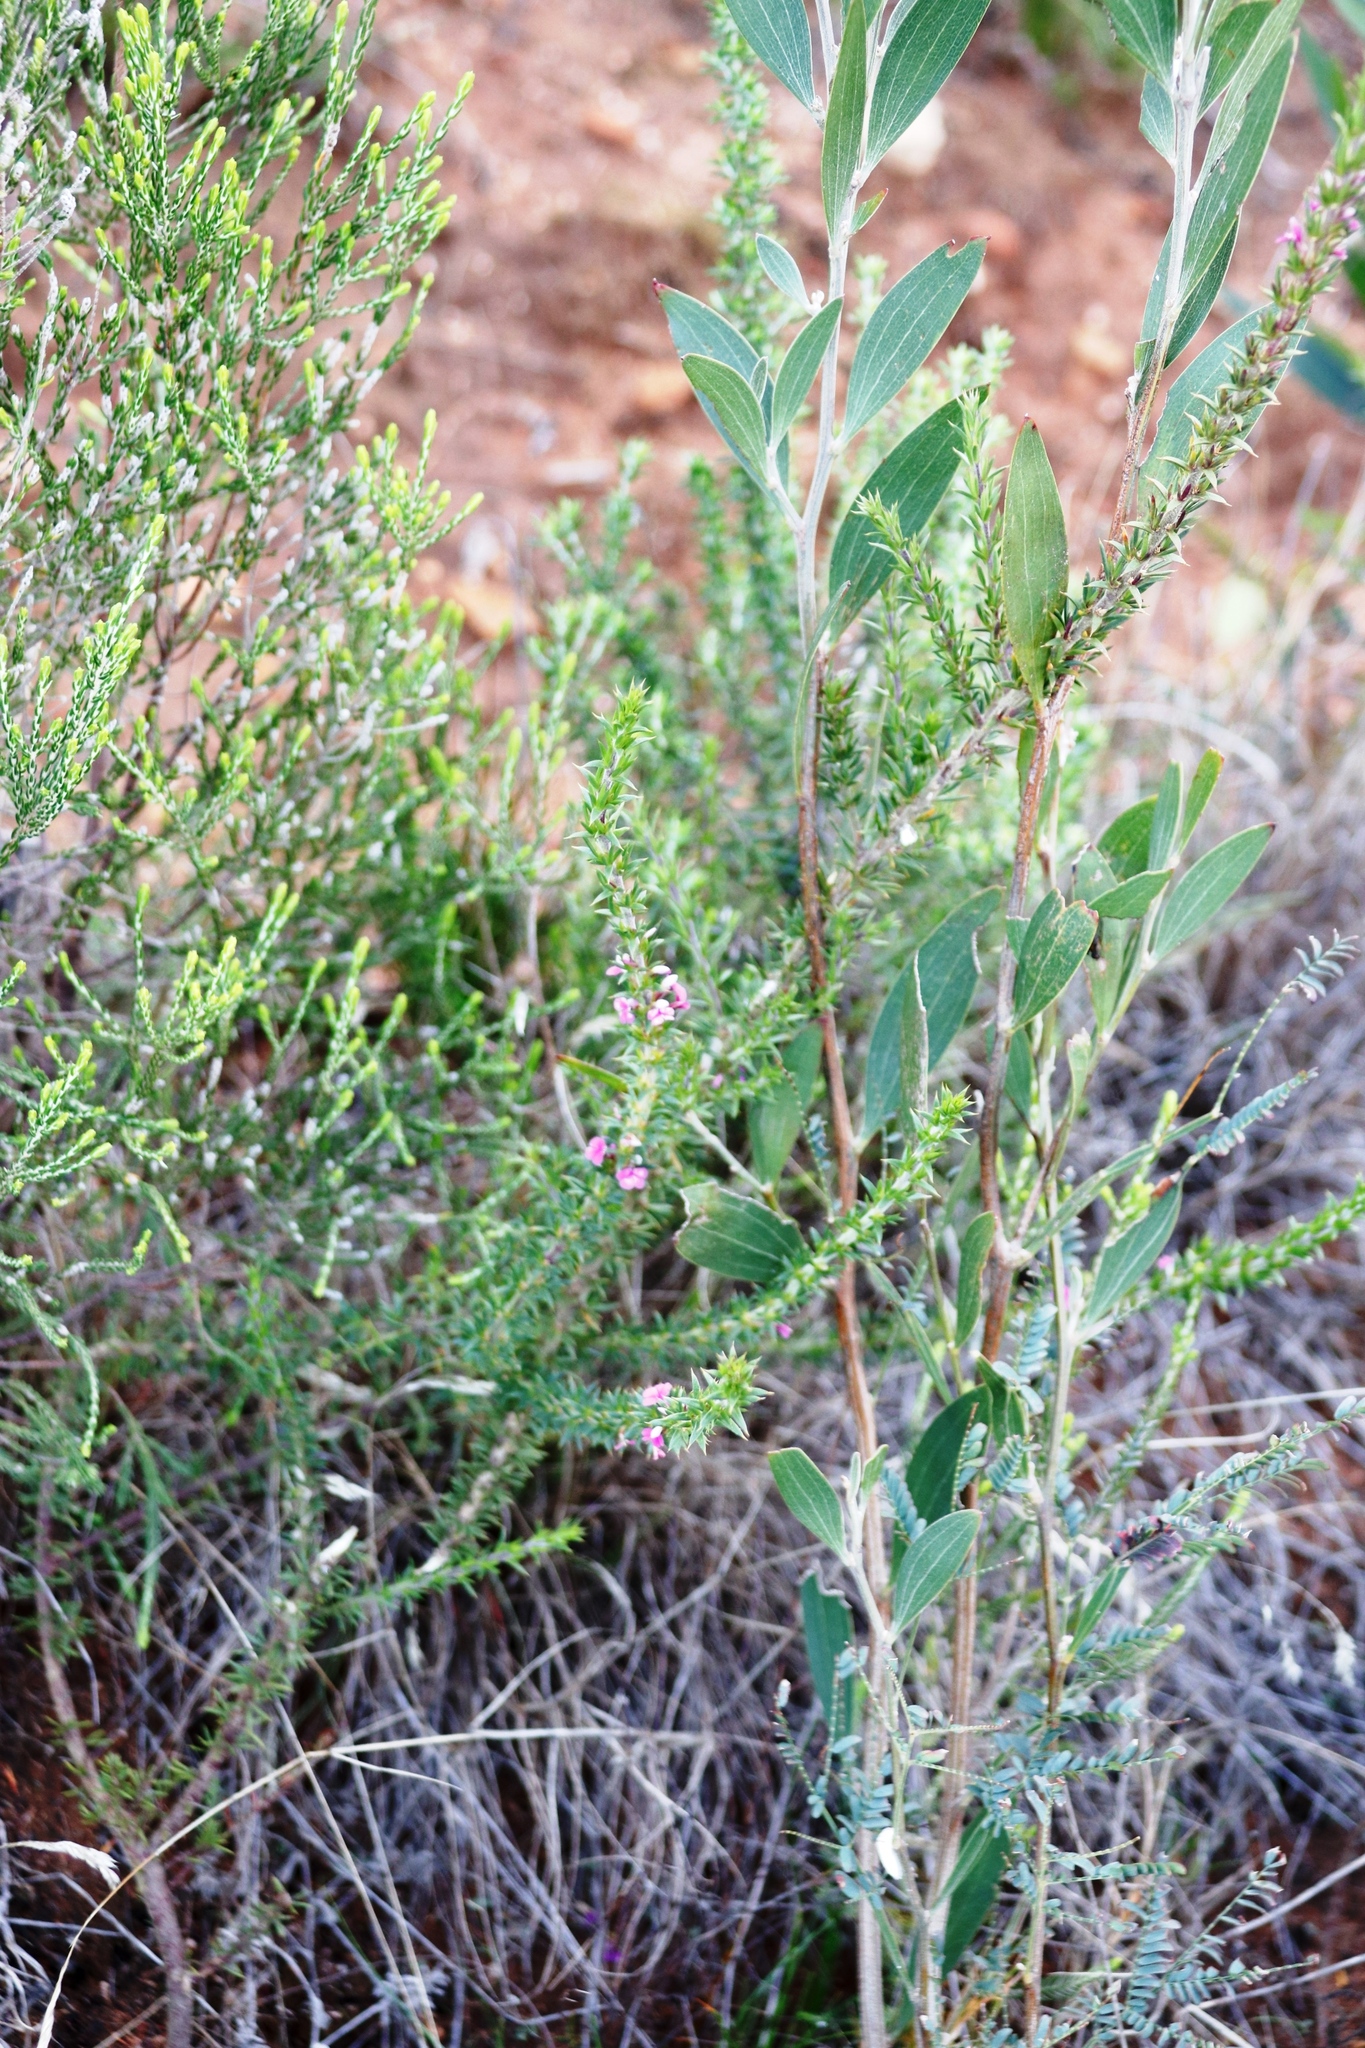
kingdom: Plantae
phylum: Tracheophyta
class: Magnoliopsida
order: Fabales
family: Polygalaceae
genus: Muraltia
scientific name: Muraltia heisteria
